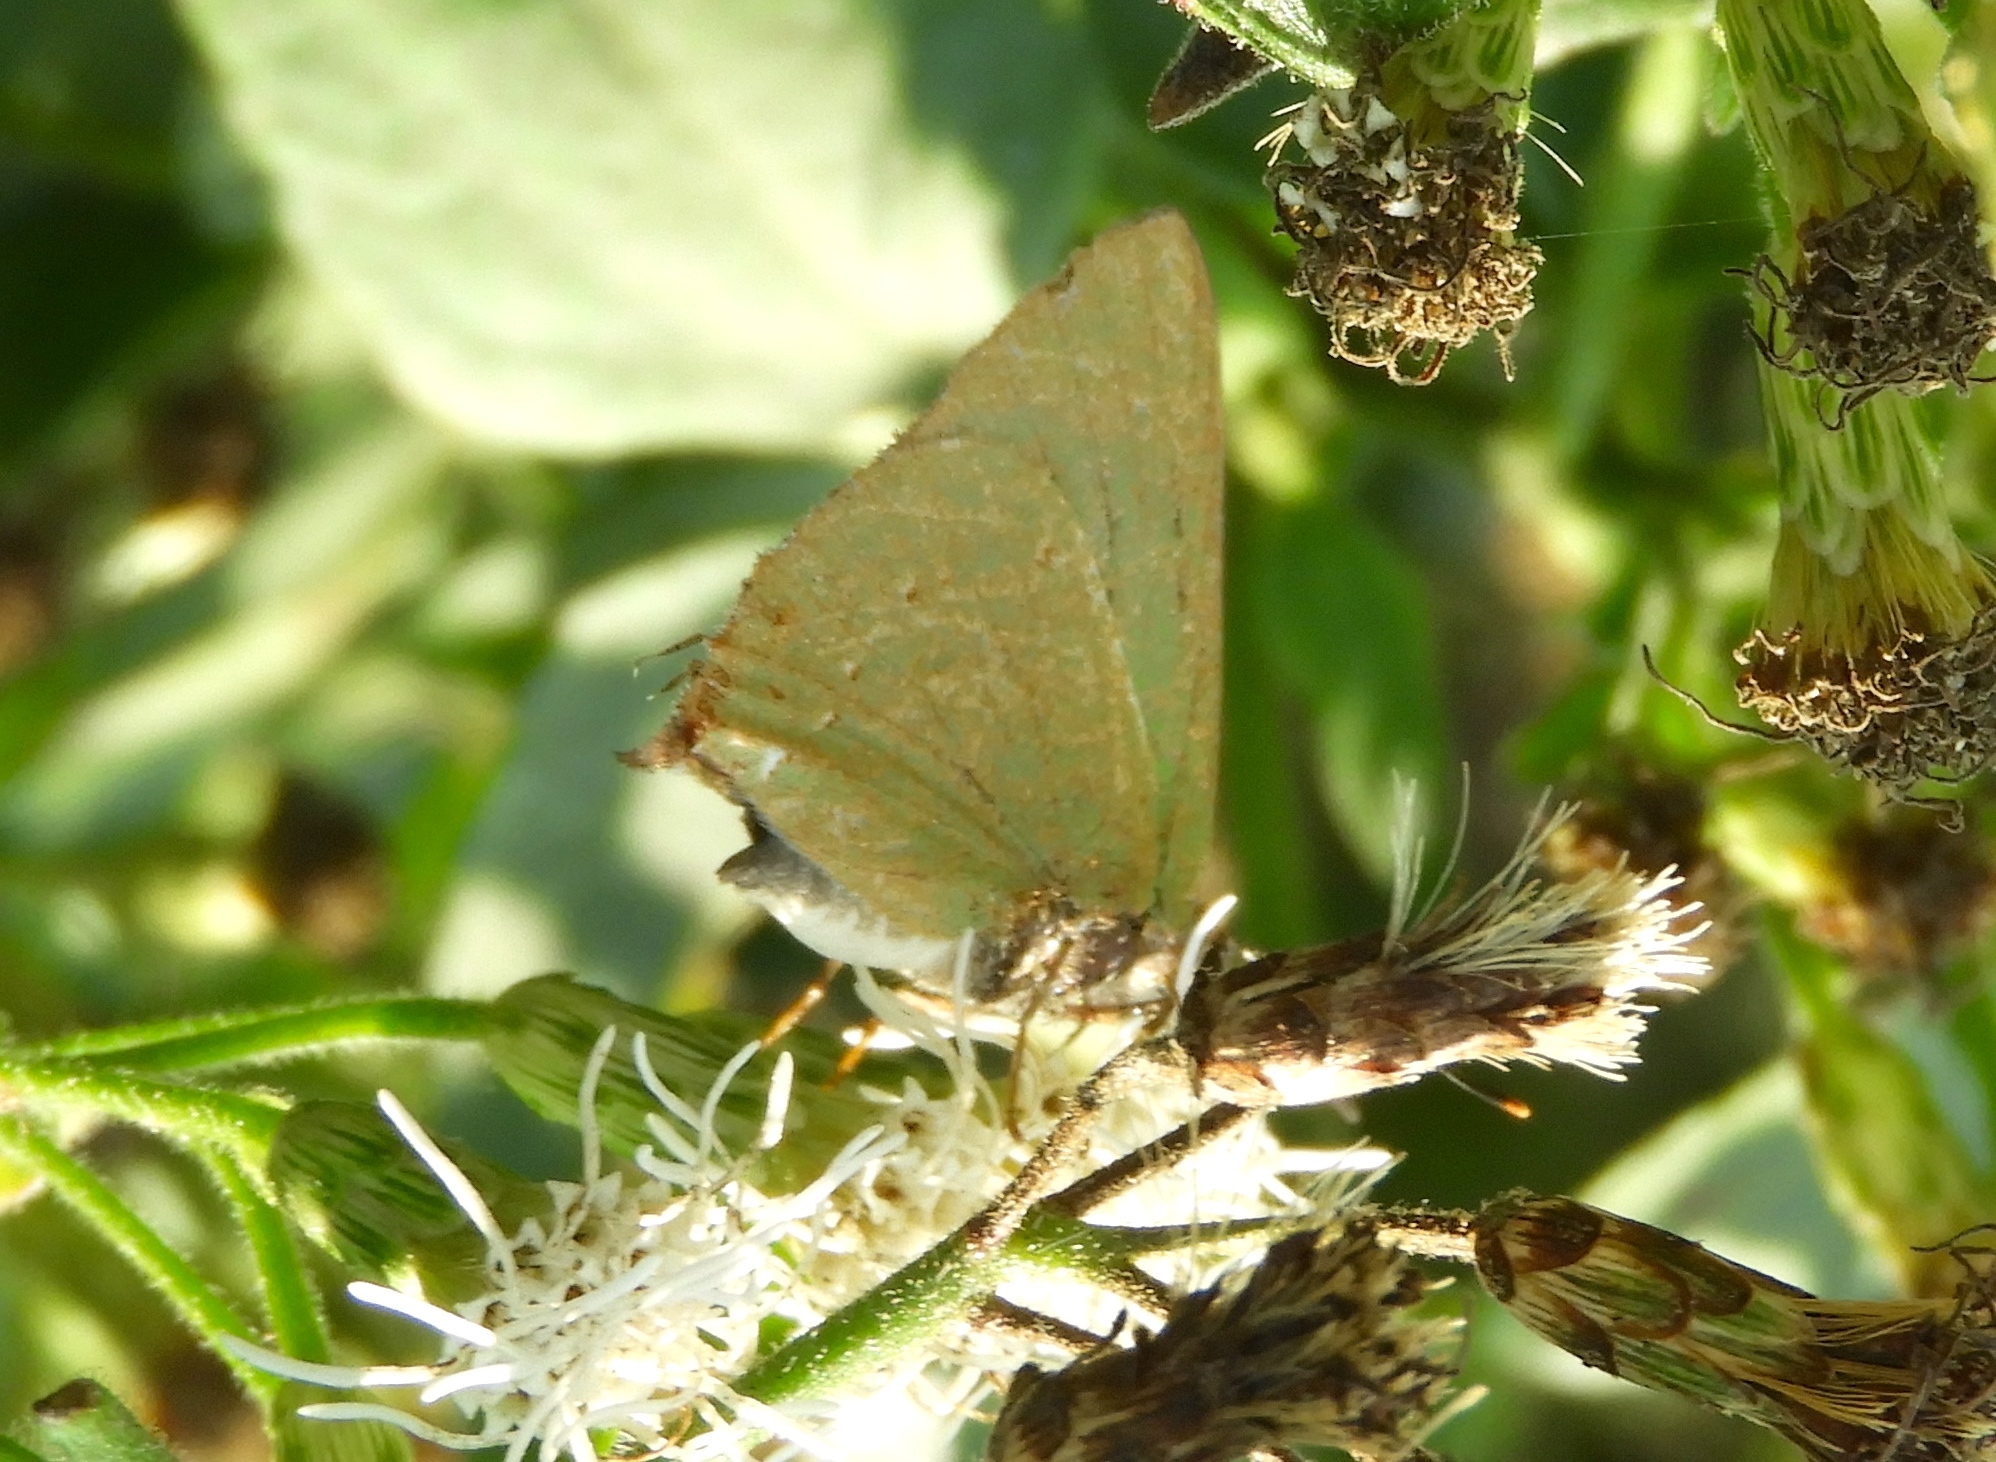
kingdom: Animalia
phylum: Arthropoda
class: Insecta
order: Lepidoptera
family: Lycaenidae
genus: Cyanophrys
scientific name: Cyanophrys
